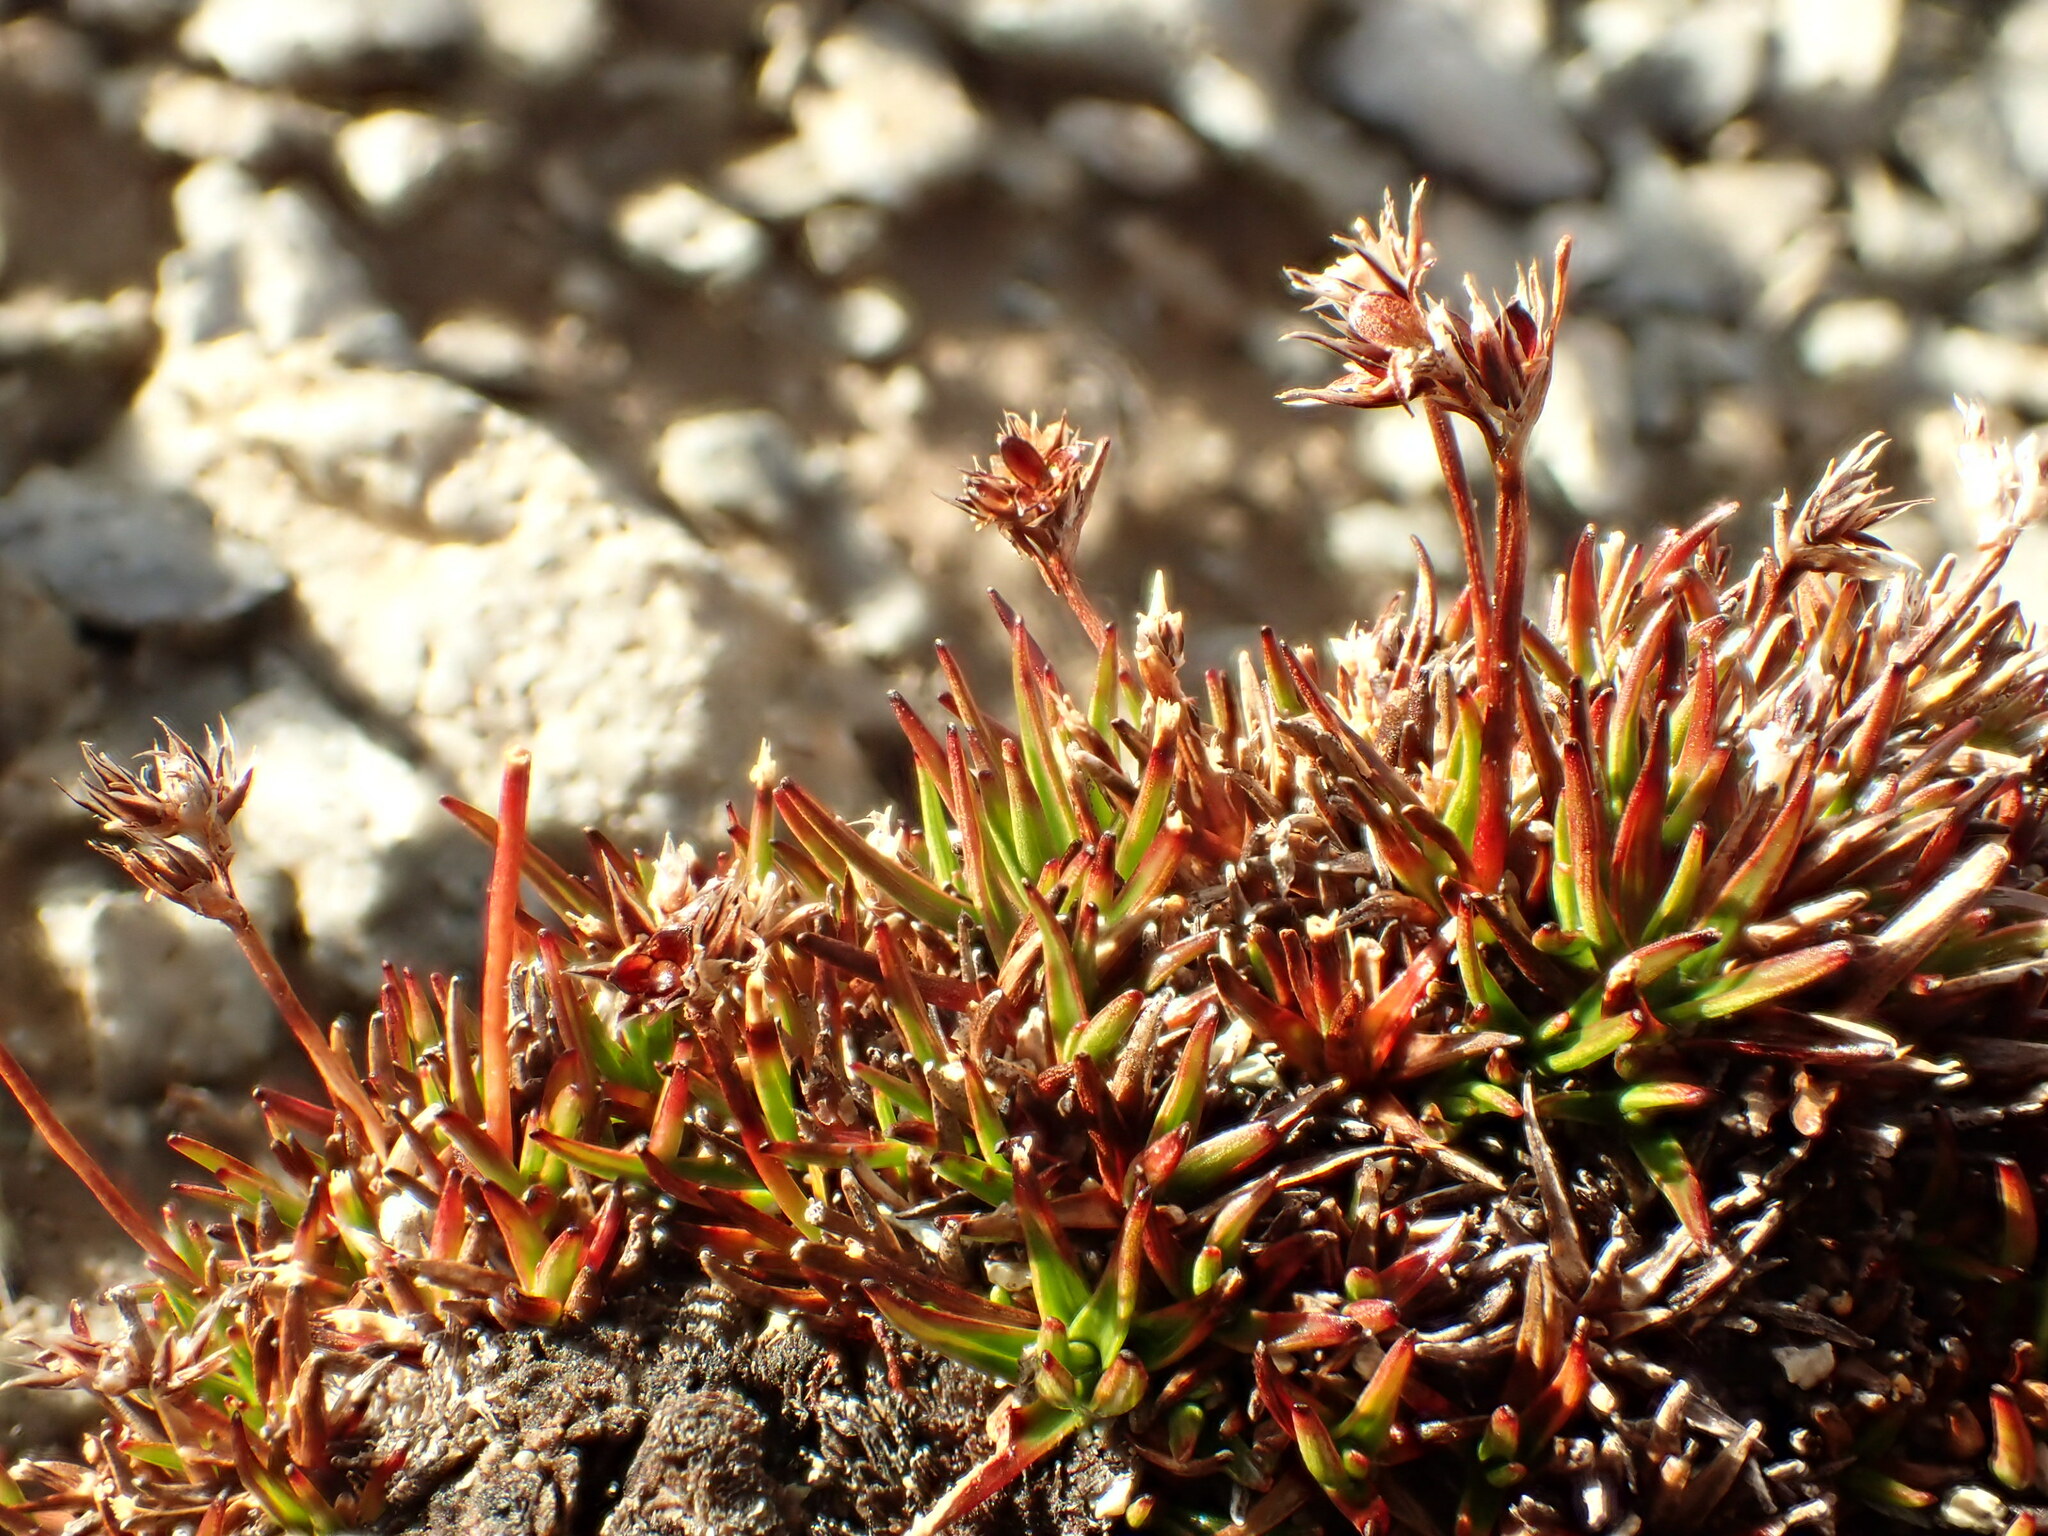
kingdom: Plantae
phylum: Tracheophyta
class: Liliopsida
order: Poales
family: Juncaceae
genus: Luzula
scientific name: Luzula pumila
